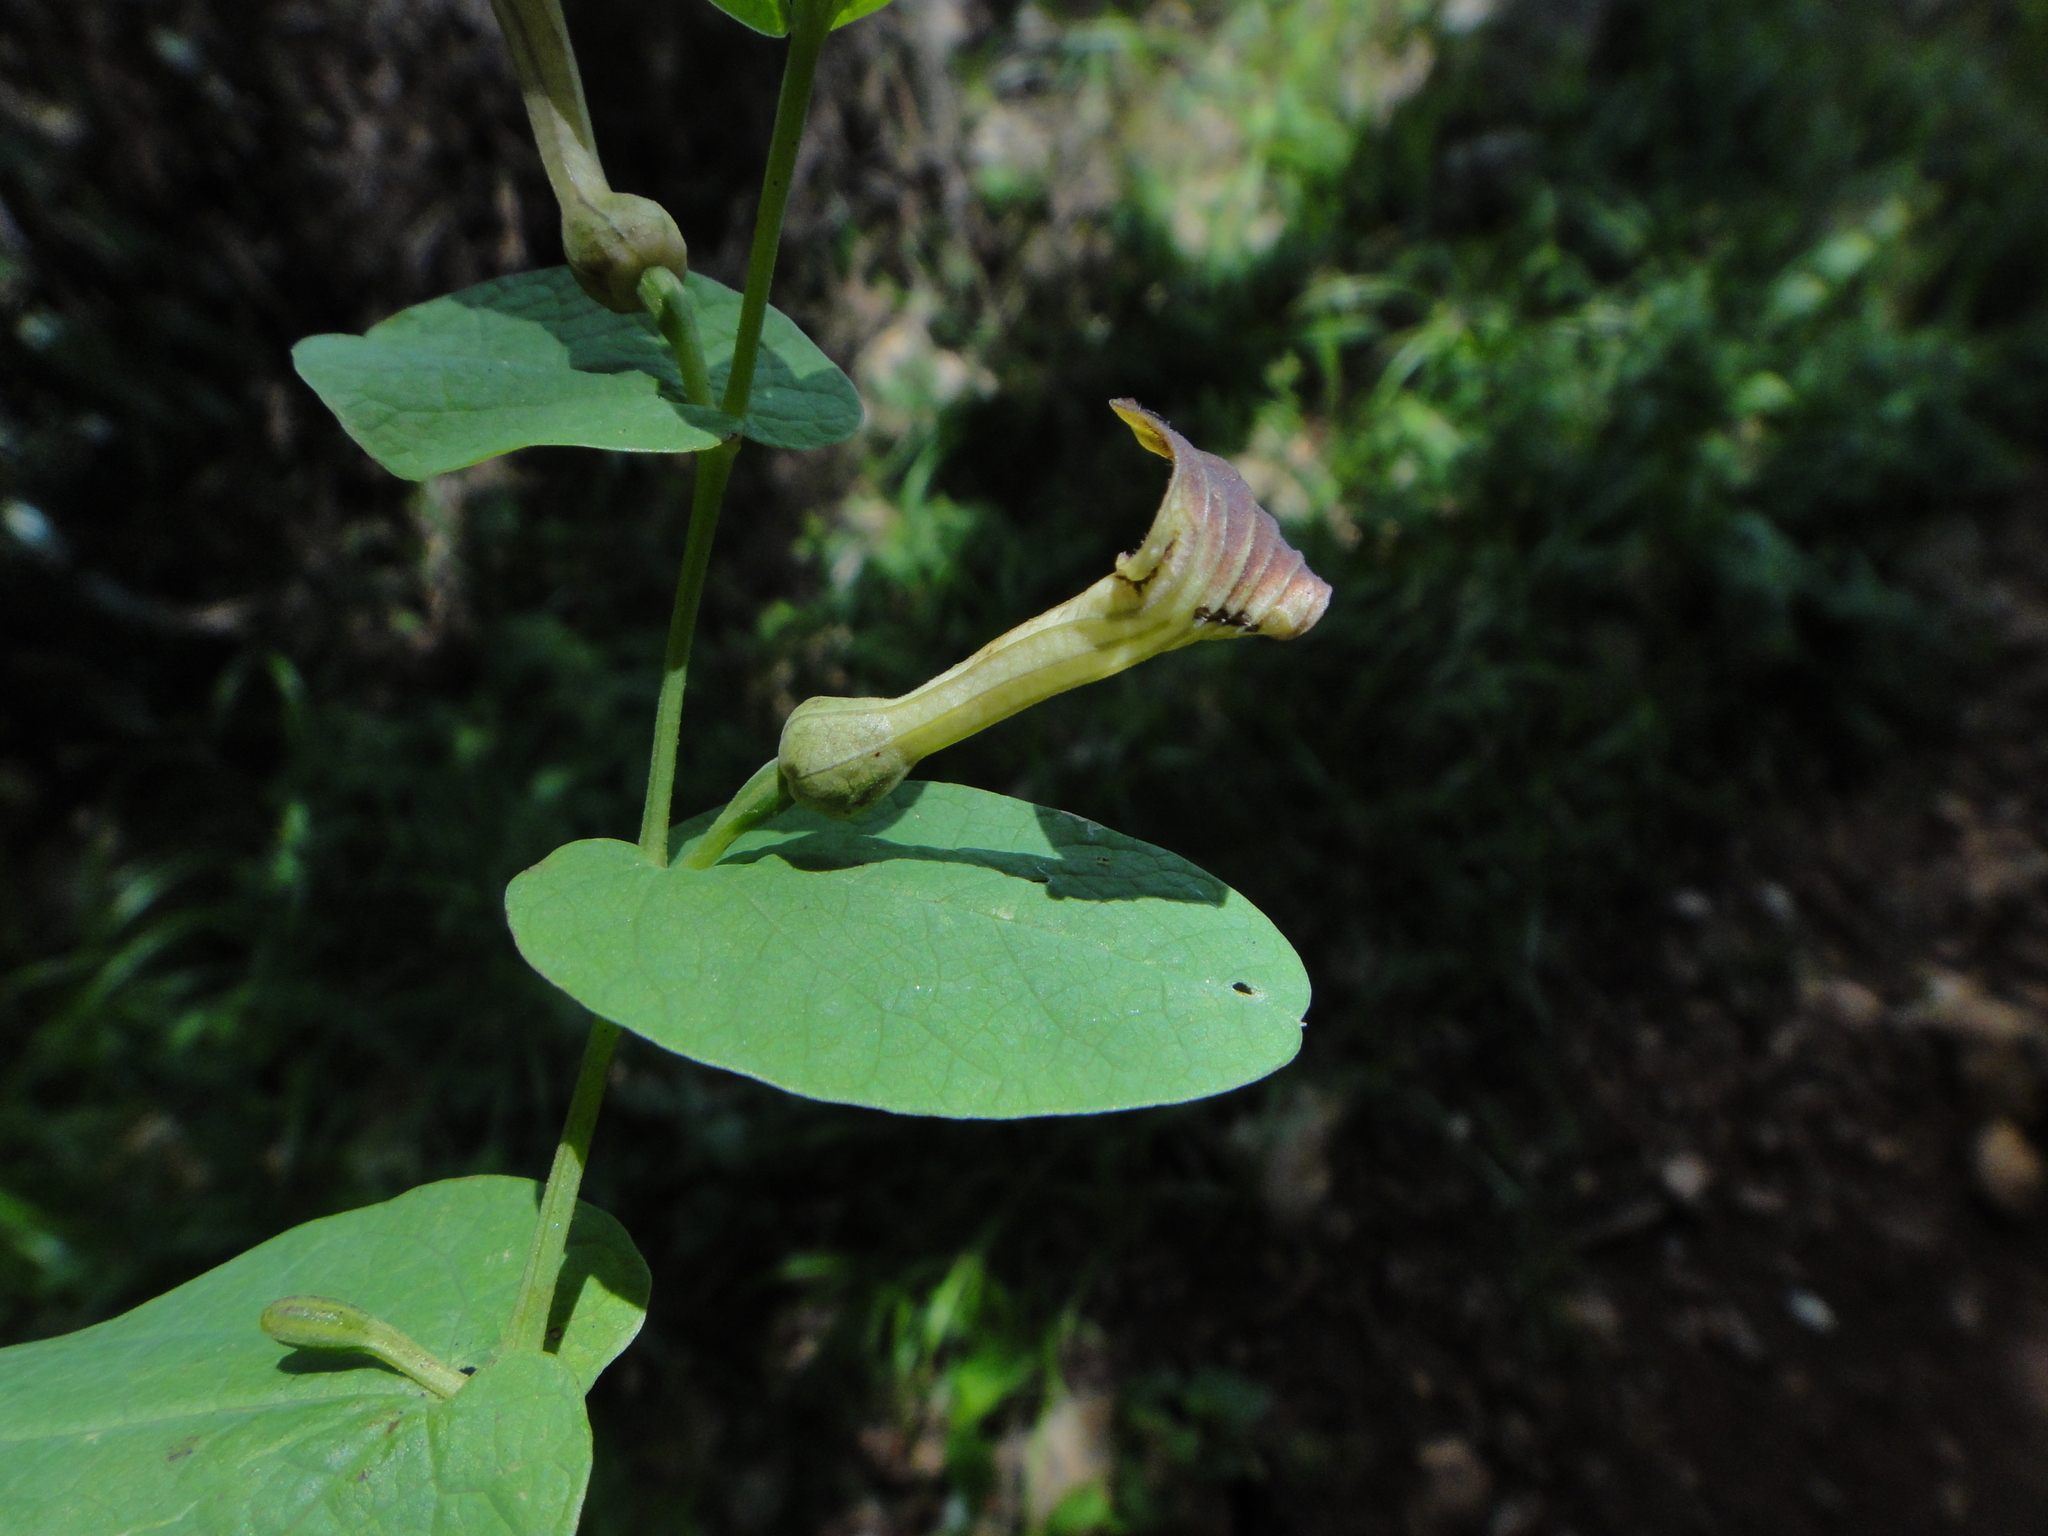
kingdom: Plantae
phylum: Tracheophyta
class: Magnoliopsida
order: Piperales
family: Aristolochiaceae
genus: Aristolochia
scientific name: Aristolochia rotunda
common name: Smearwort
